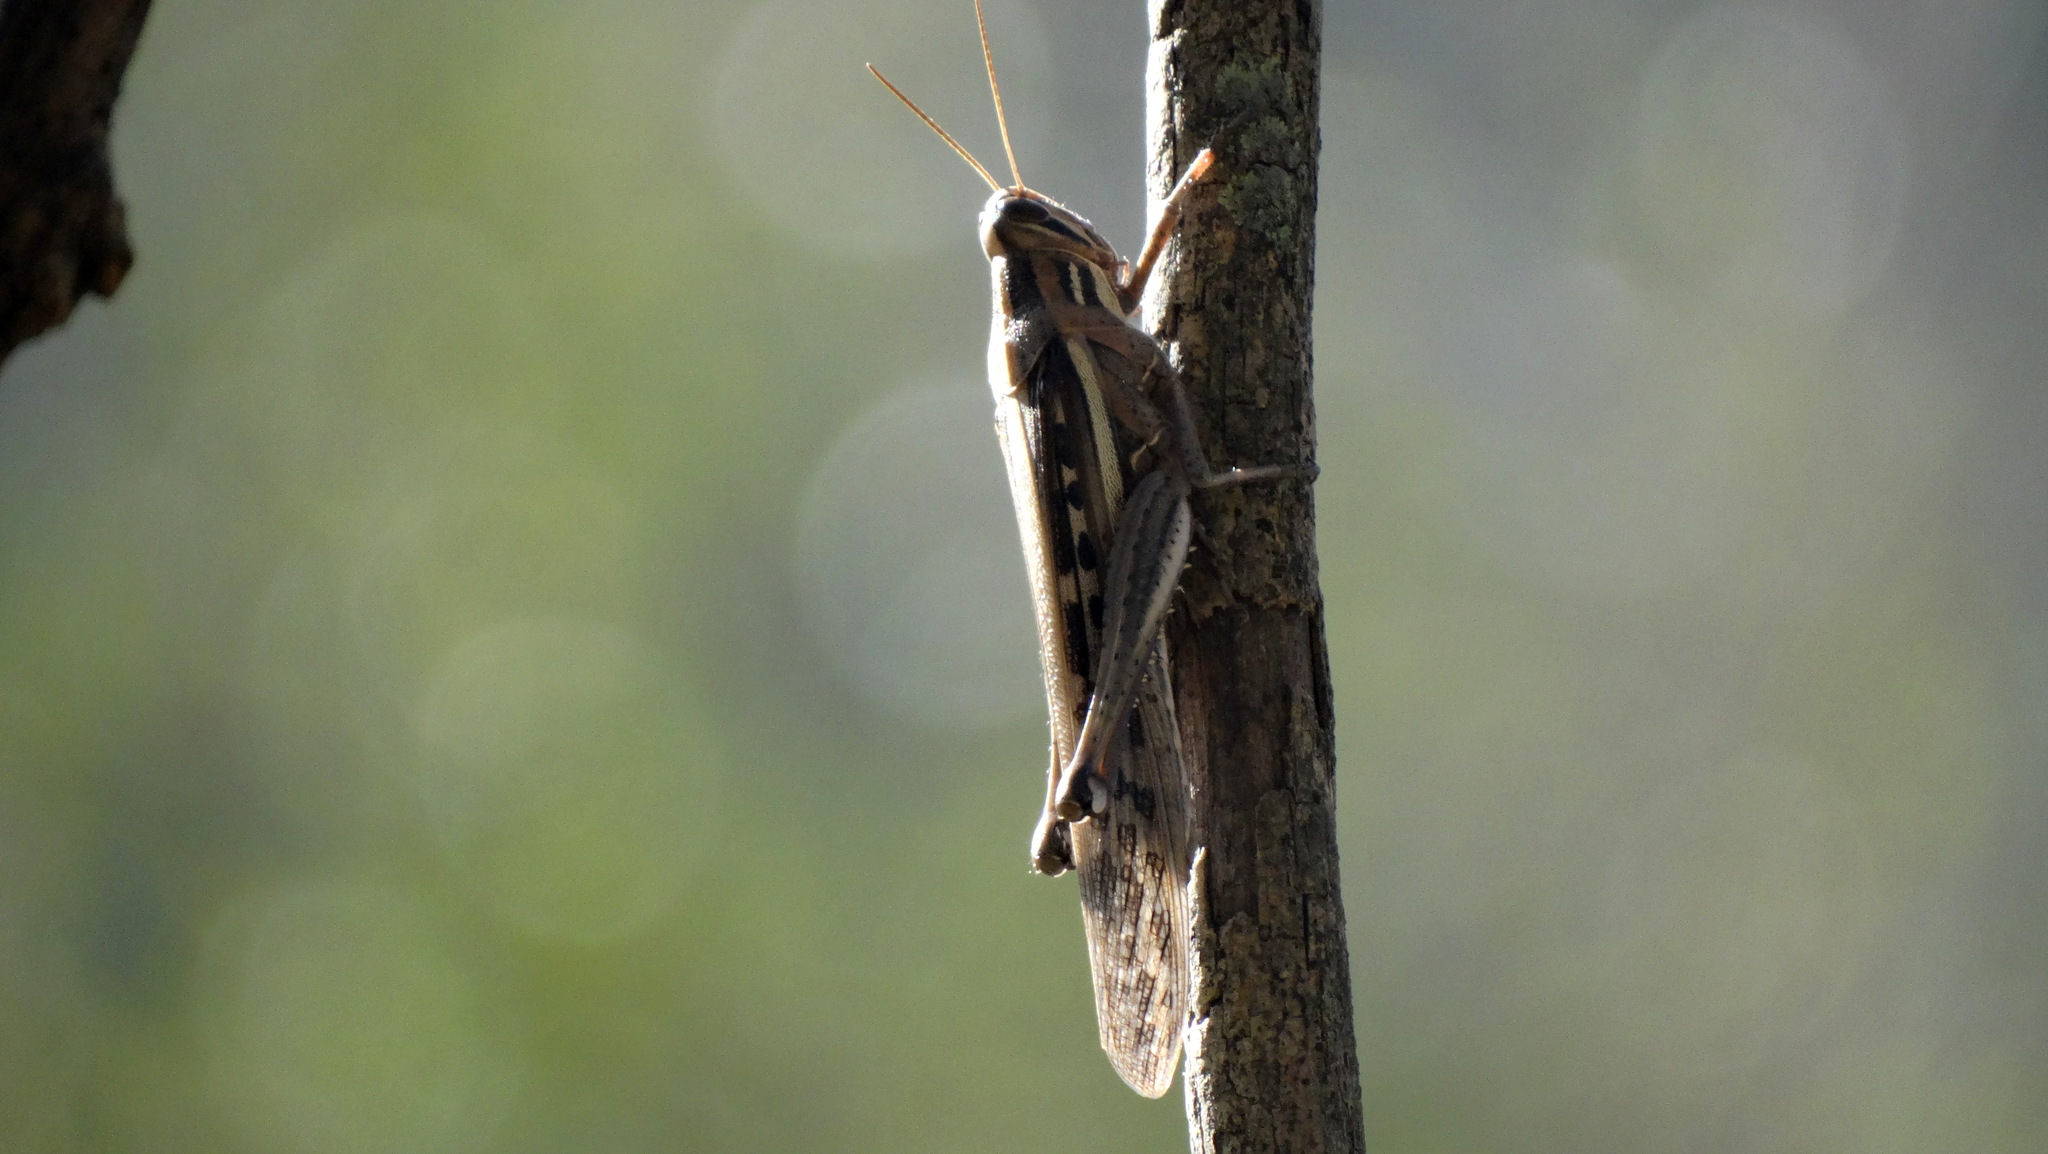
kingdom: Animalia
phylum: Arthropoda
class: Insecta
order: Orthoptera
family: Acrididae
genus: Schistocerca
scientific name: Schistocerca cancellata
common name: South american locust
